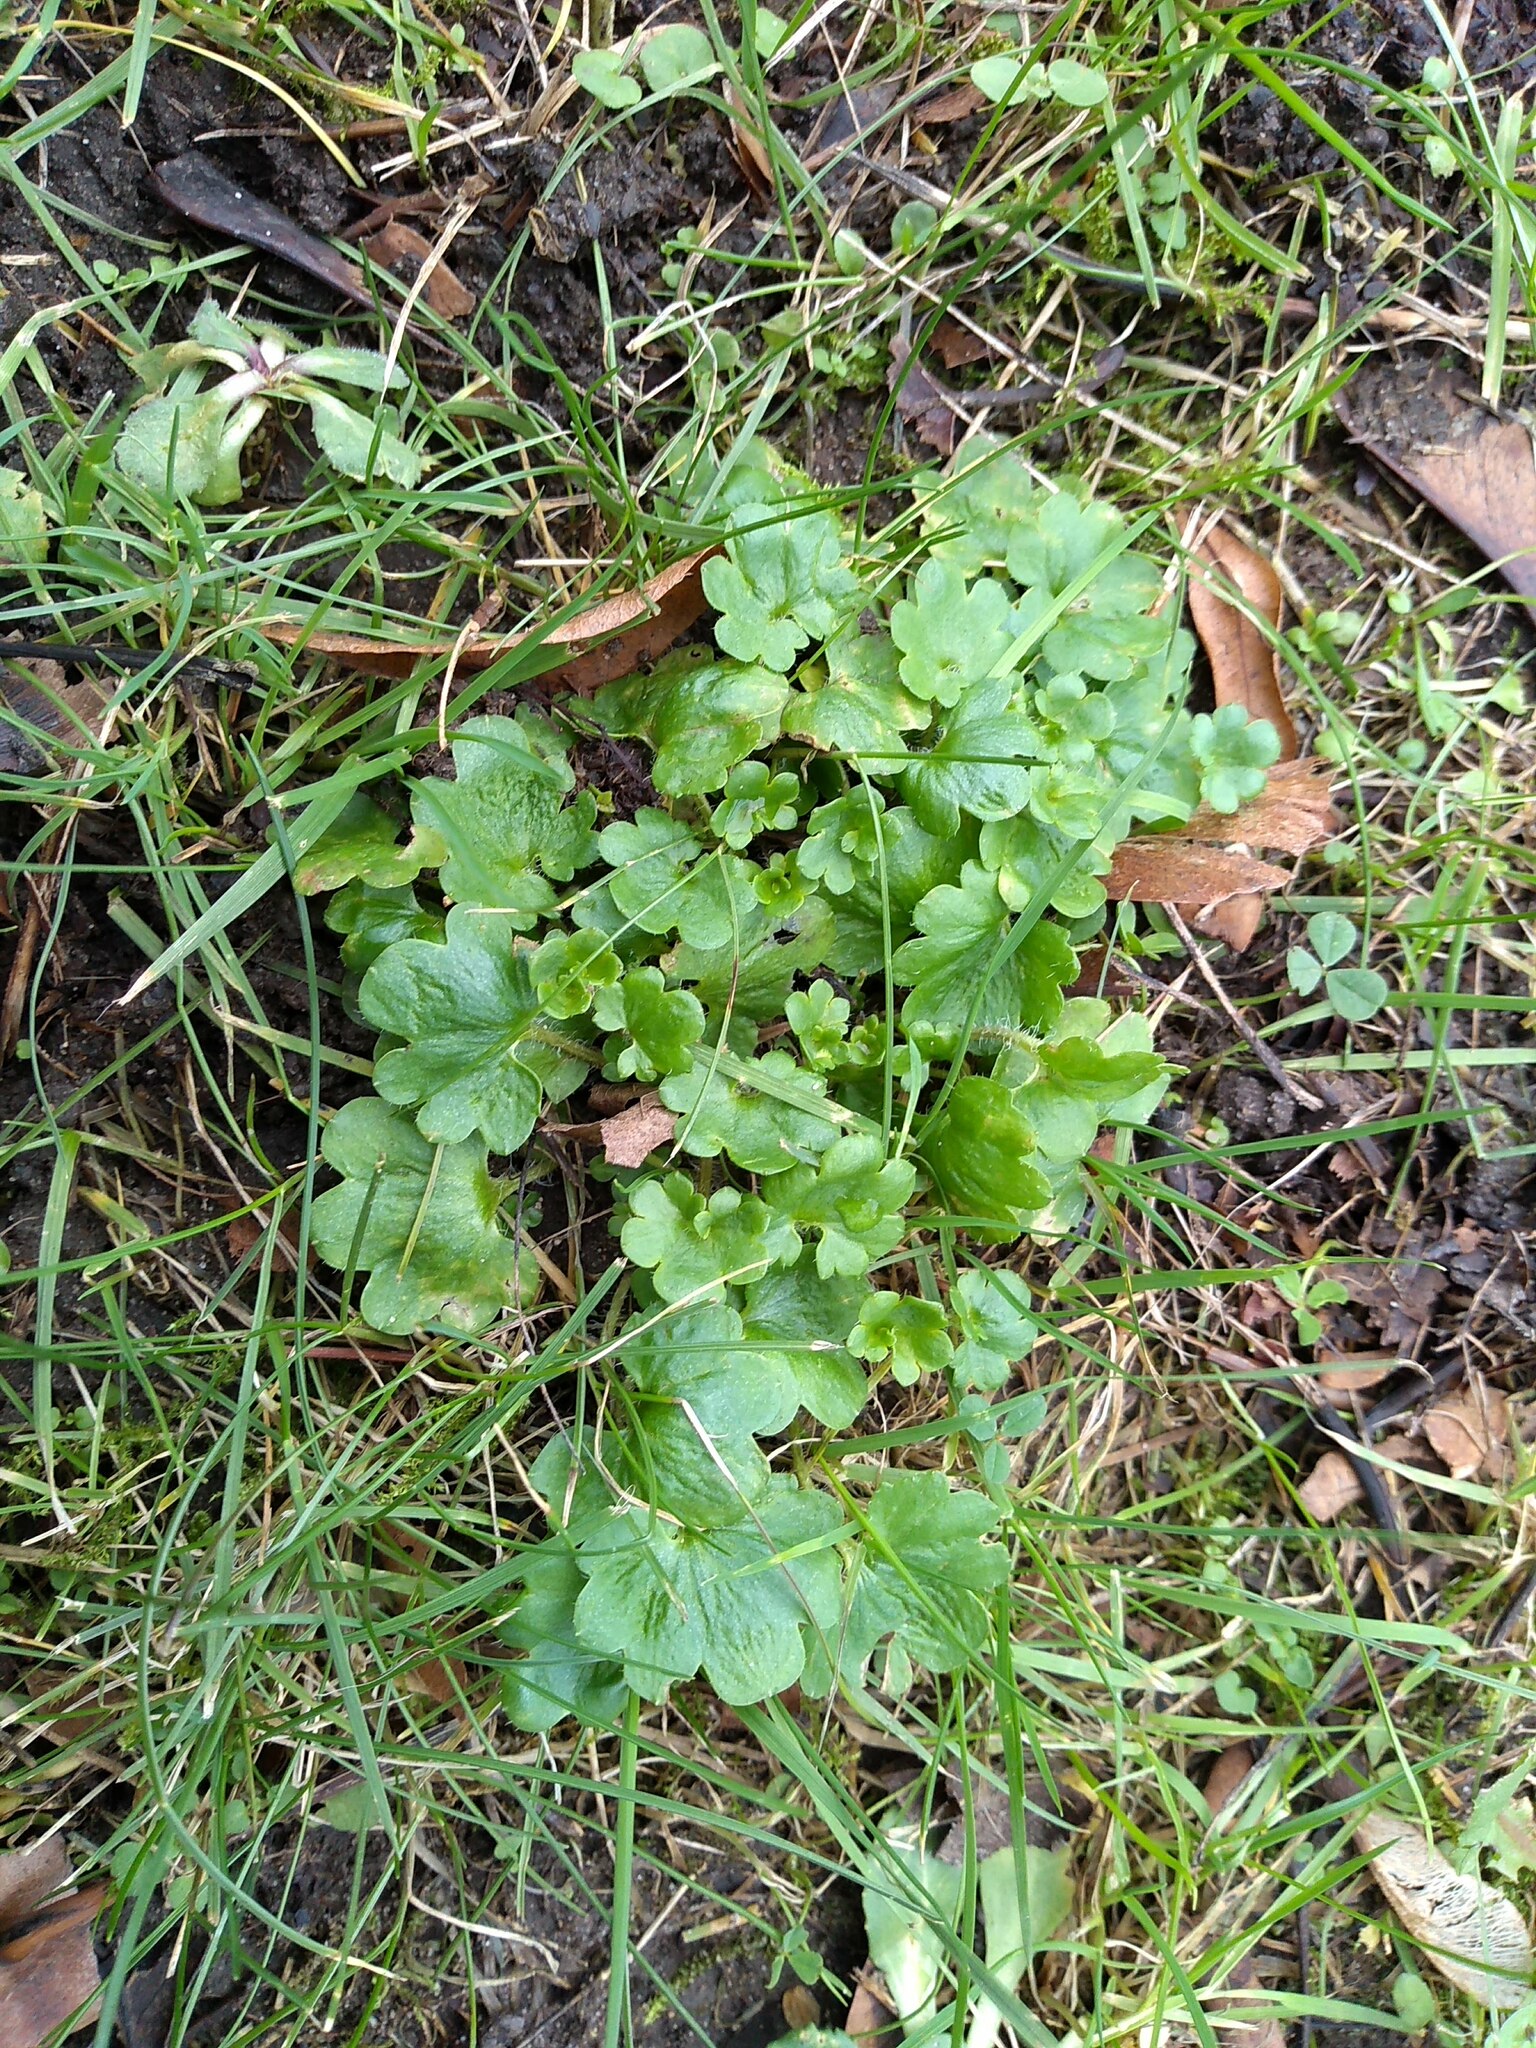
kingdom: Plantae
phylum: Tracheophyta
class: Magnoliopsida
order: Saxifragales
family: Saxifragaceae
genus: Saxifraga
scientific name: Saxifraga granulata
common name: Meadow saxifrage
